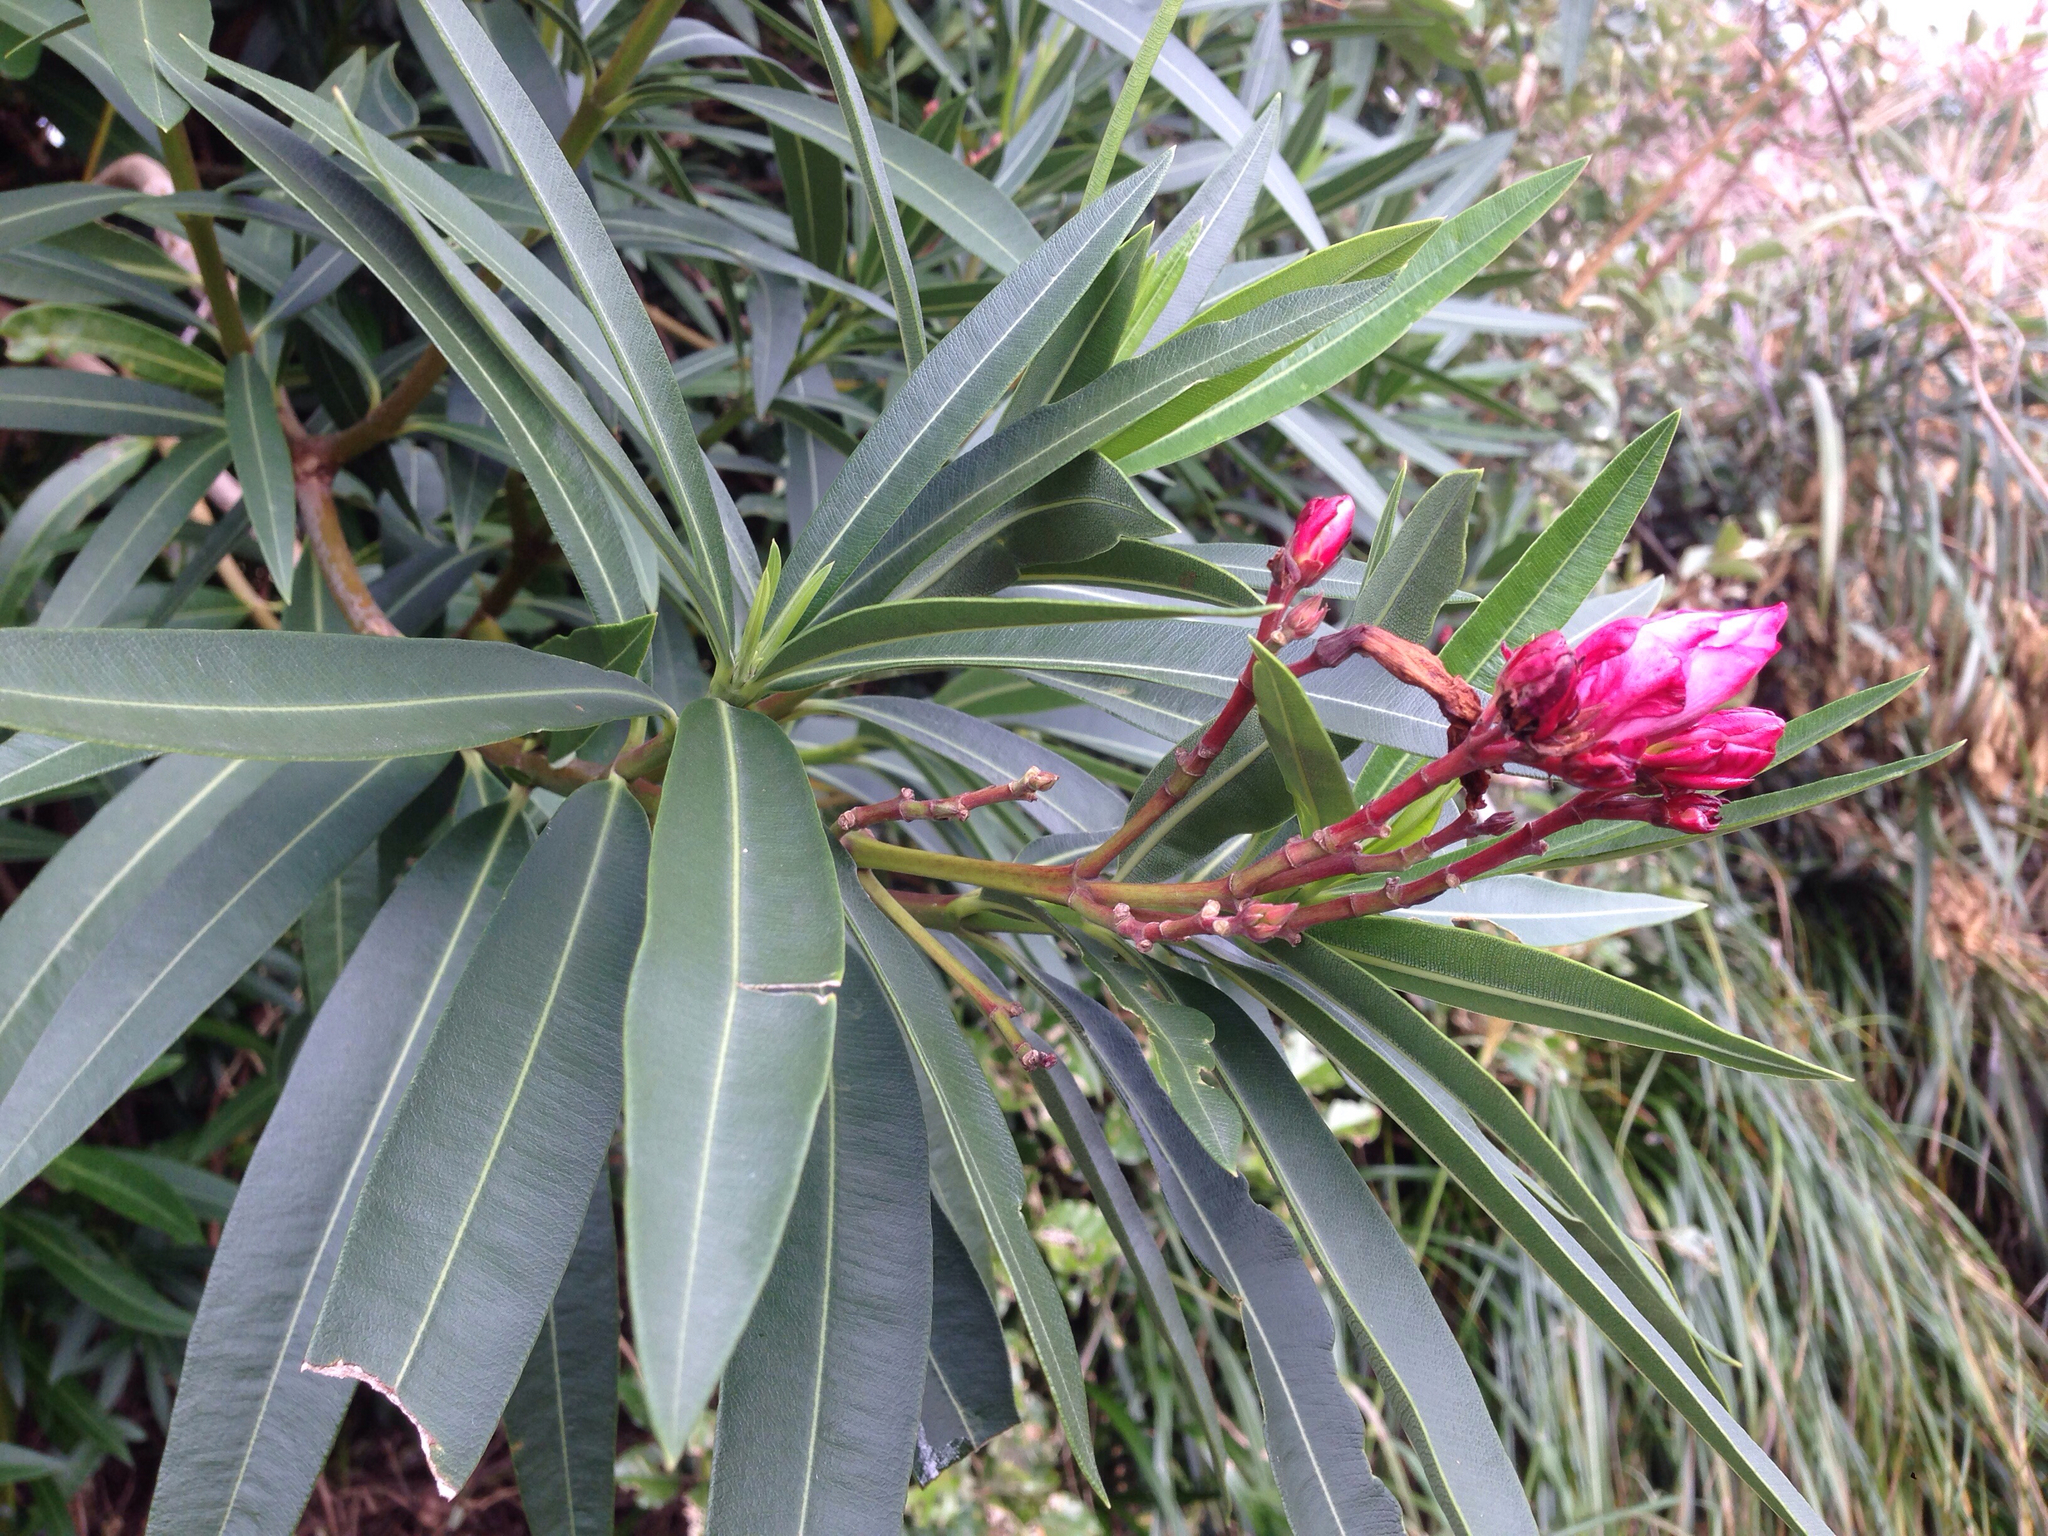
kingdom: Plantae
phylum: Tracheophyta
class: Magnoliopsida
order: Gentianales
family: Apocynaceae
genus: Nerium
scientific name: Nerium oleander
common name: Oleander
